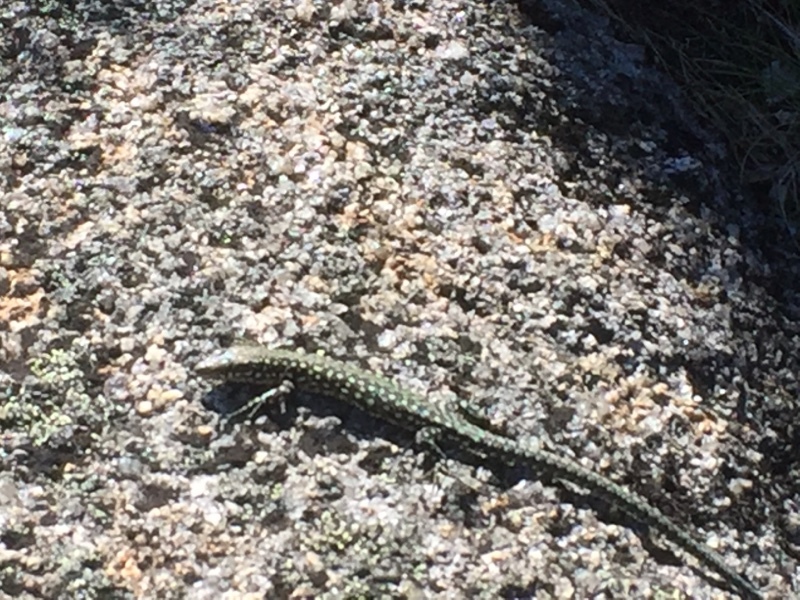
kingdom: Animalia
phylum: Chordata
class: Squamata
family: Lacertidae
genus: Podarcis
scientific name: Podarcis
